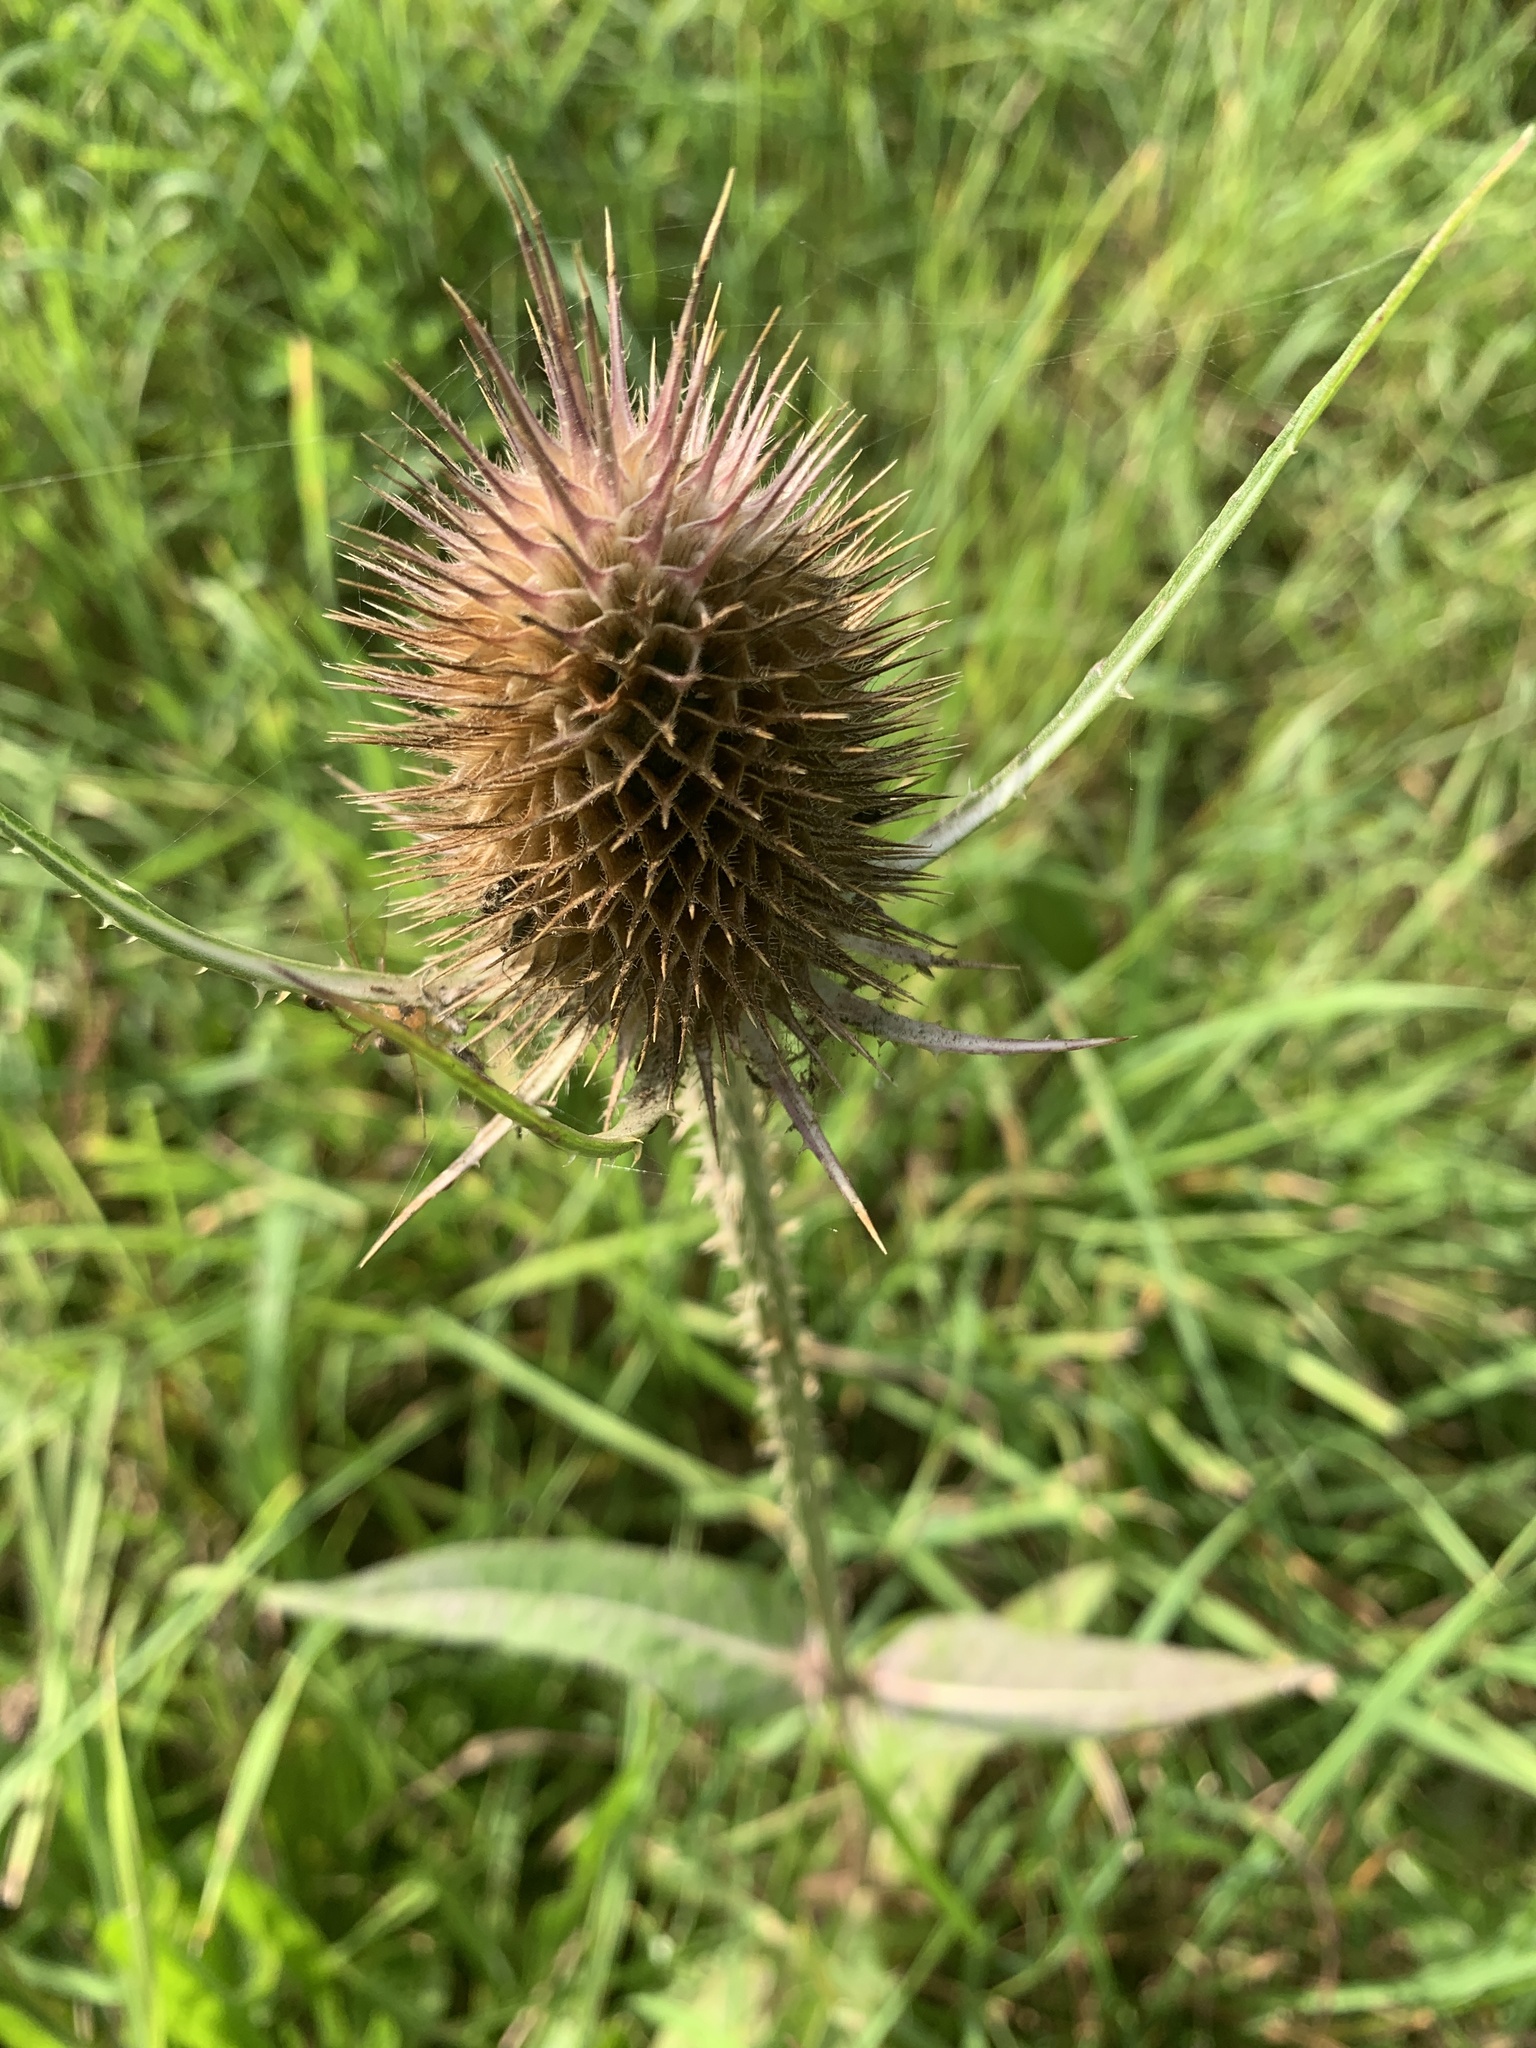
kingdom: Plantae
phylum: Tracheophyta
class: Magnoliopsida
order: Dipsacales
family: Caprifoliaceae
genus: Dipsacus
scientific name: Dipsacus fullonum
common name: Teasel
